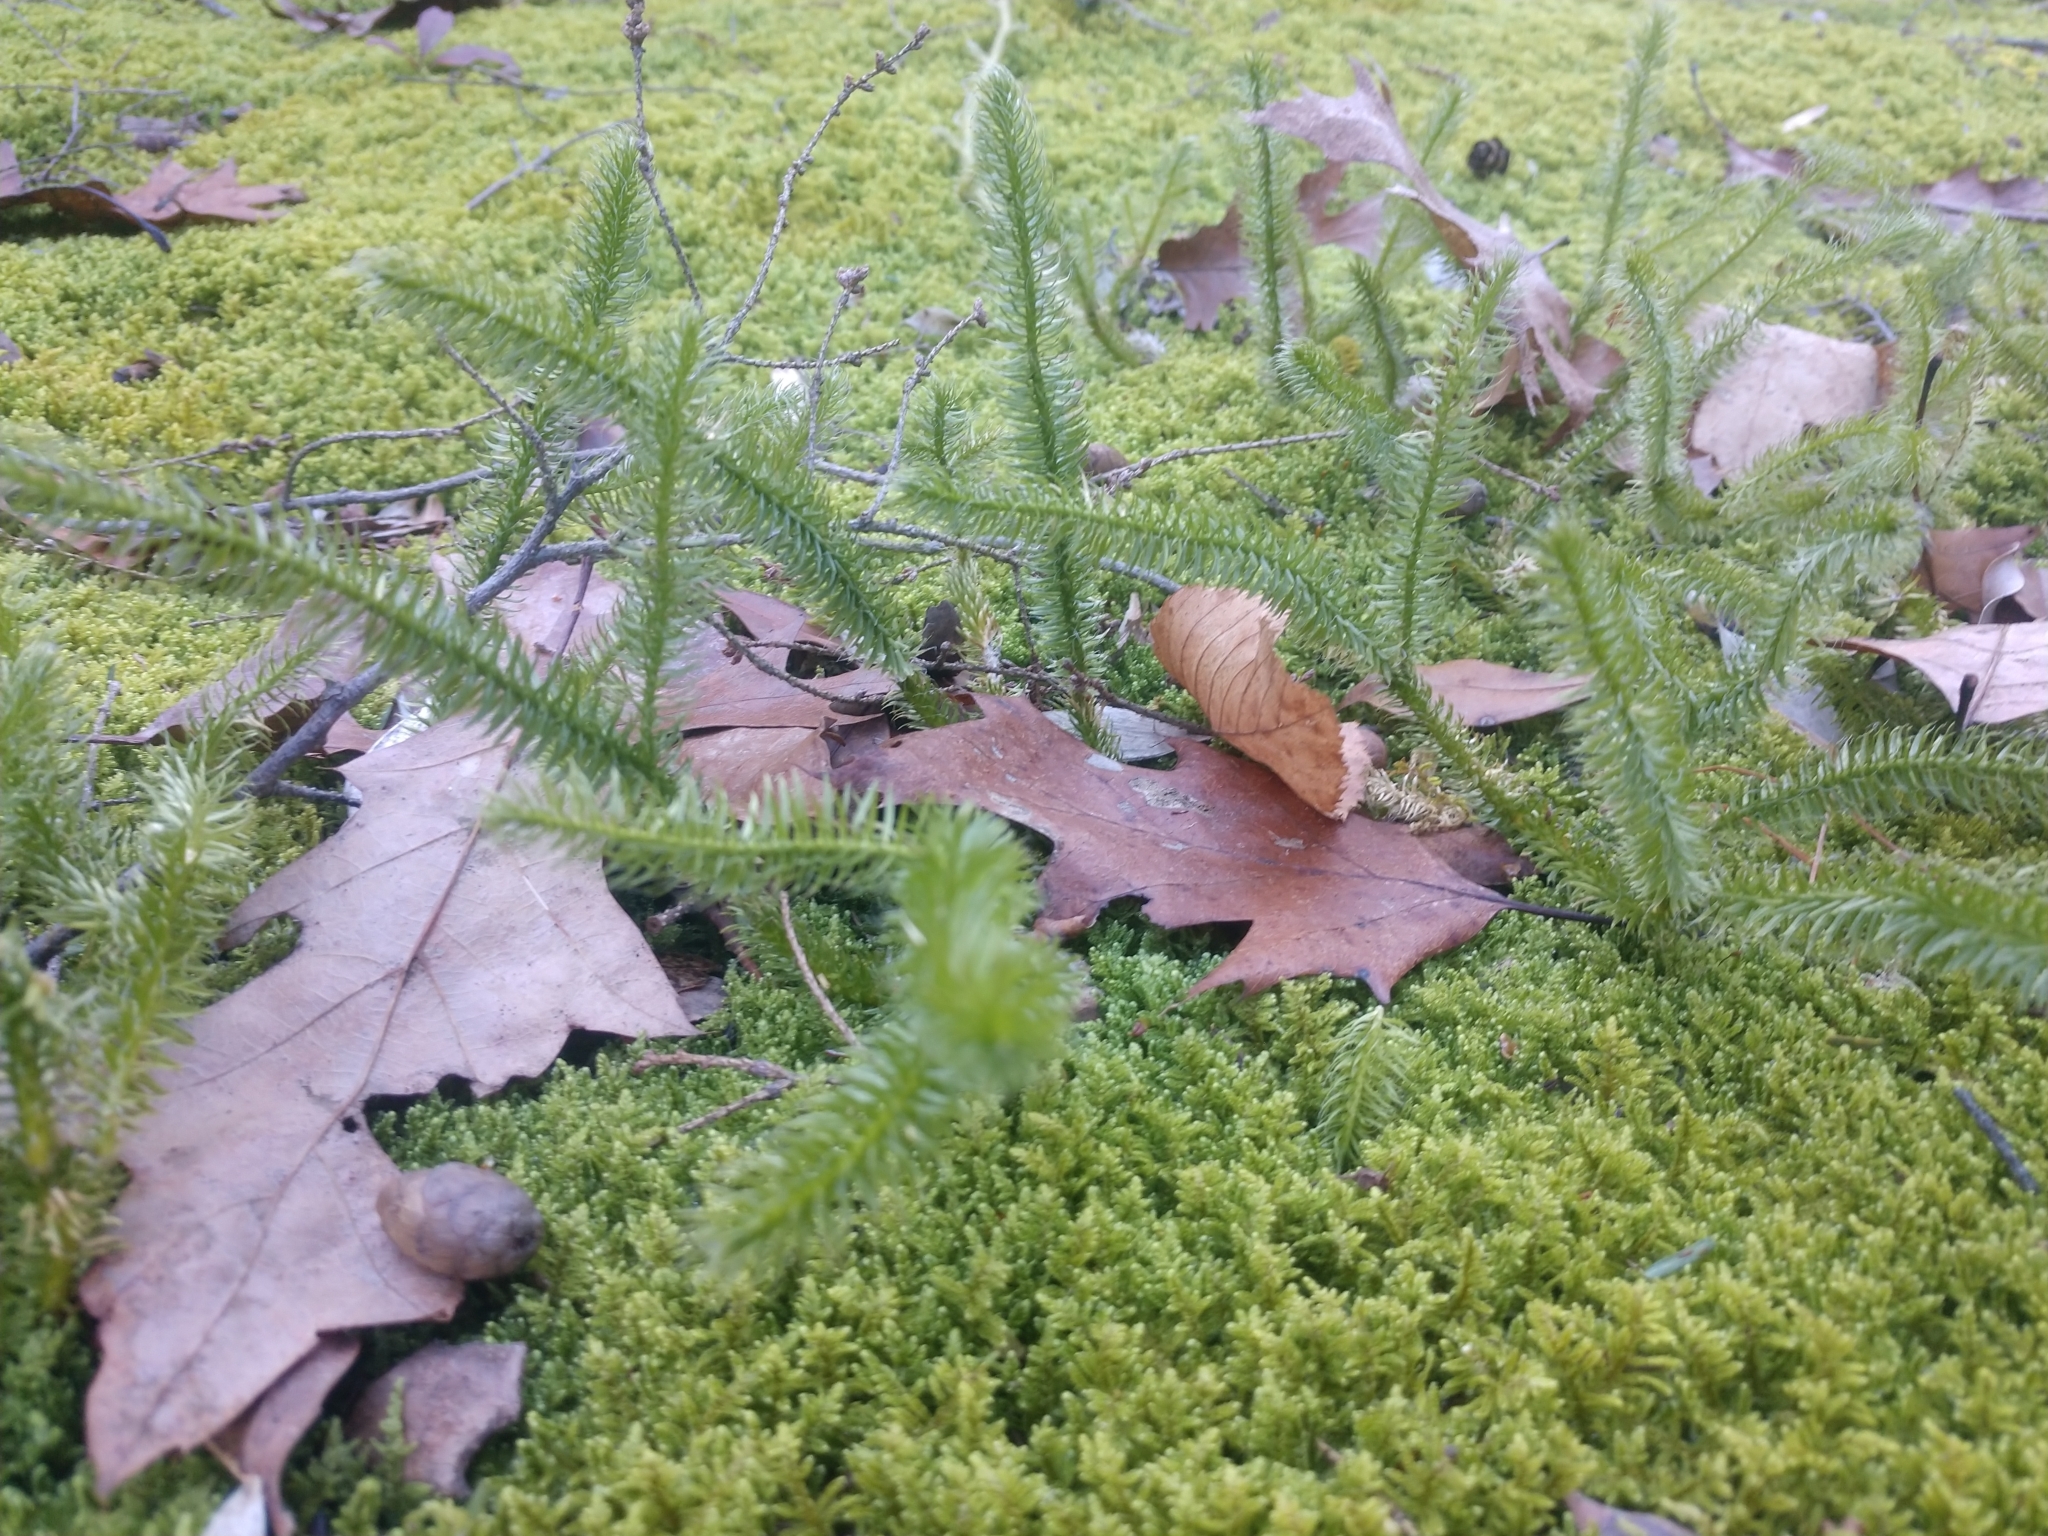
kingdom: Plantae
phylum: Tracheophyta
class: Lycopodiopsida
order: Lycopodiales
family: Lycopodiaceae
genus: Lycopodium
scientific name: Lycopodium clavatum
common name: Stag's-horn clubmoss
